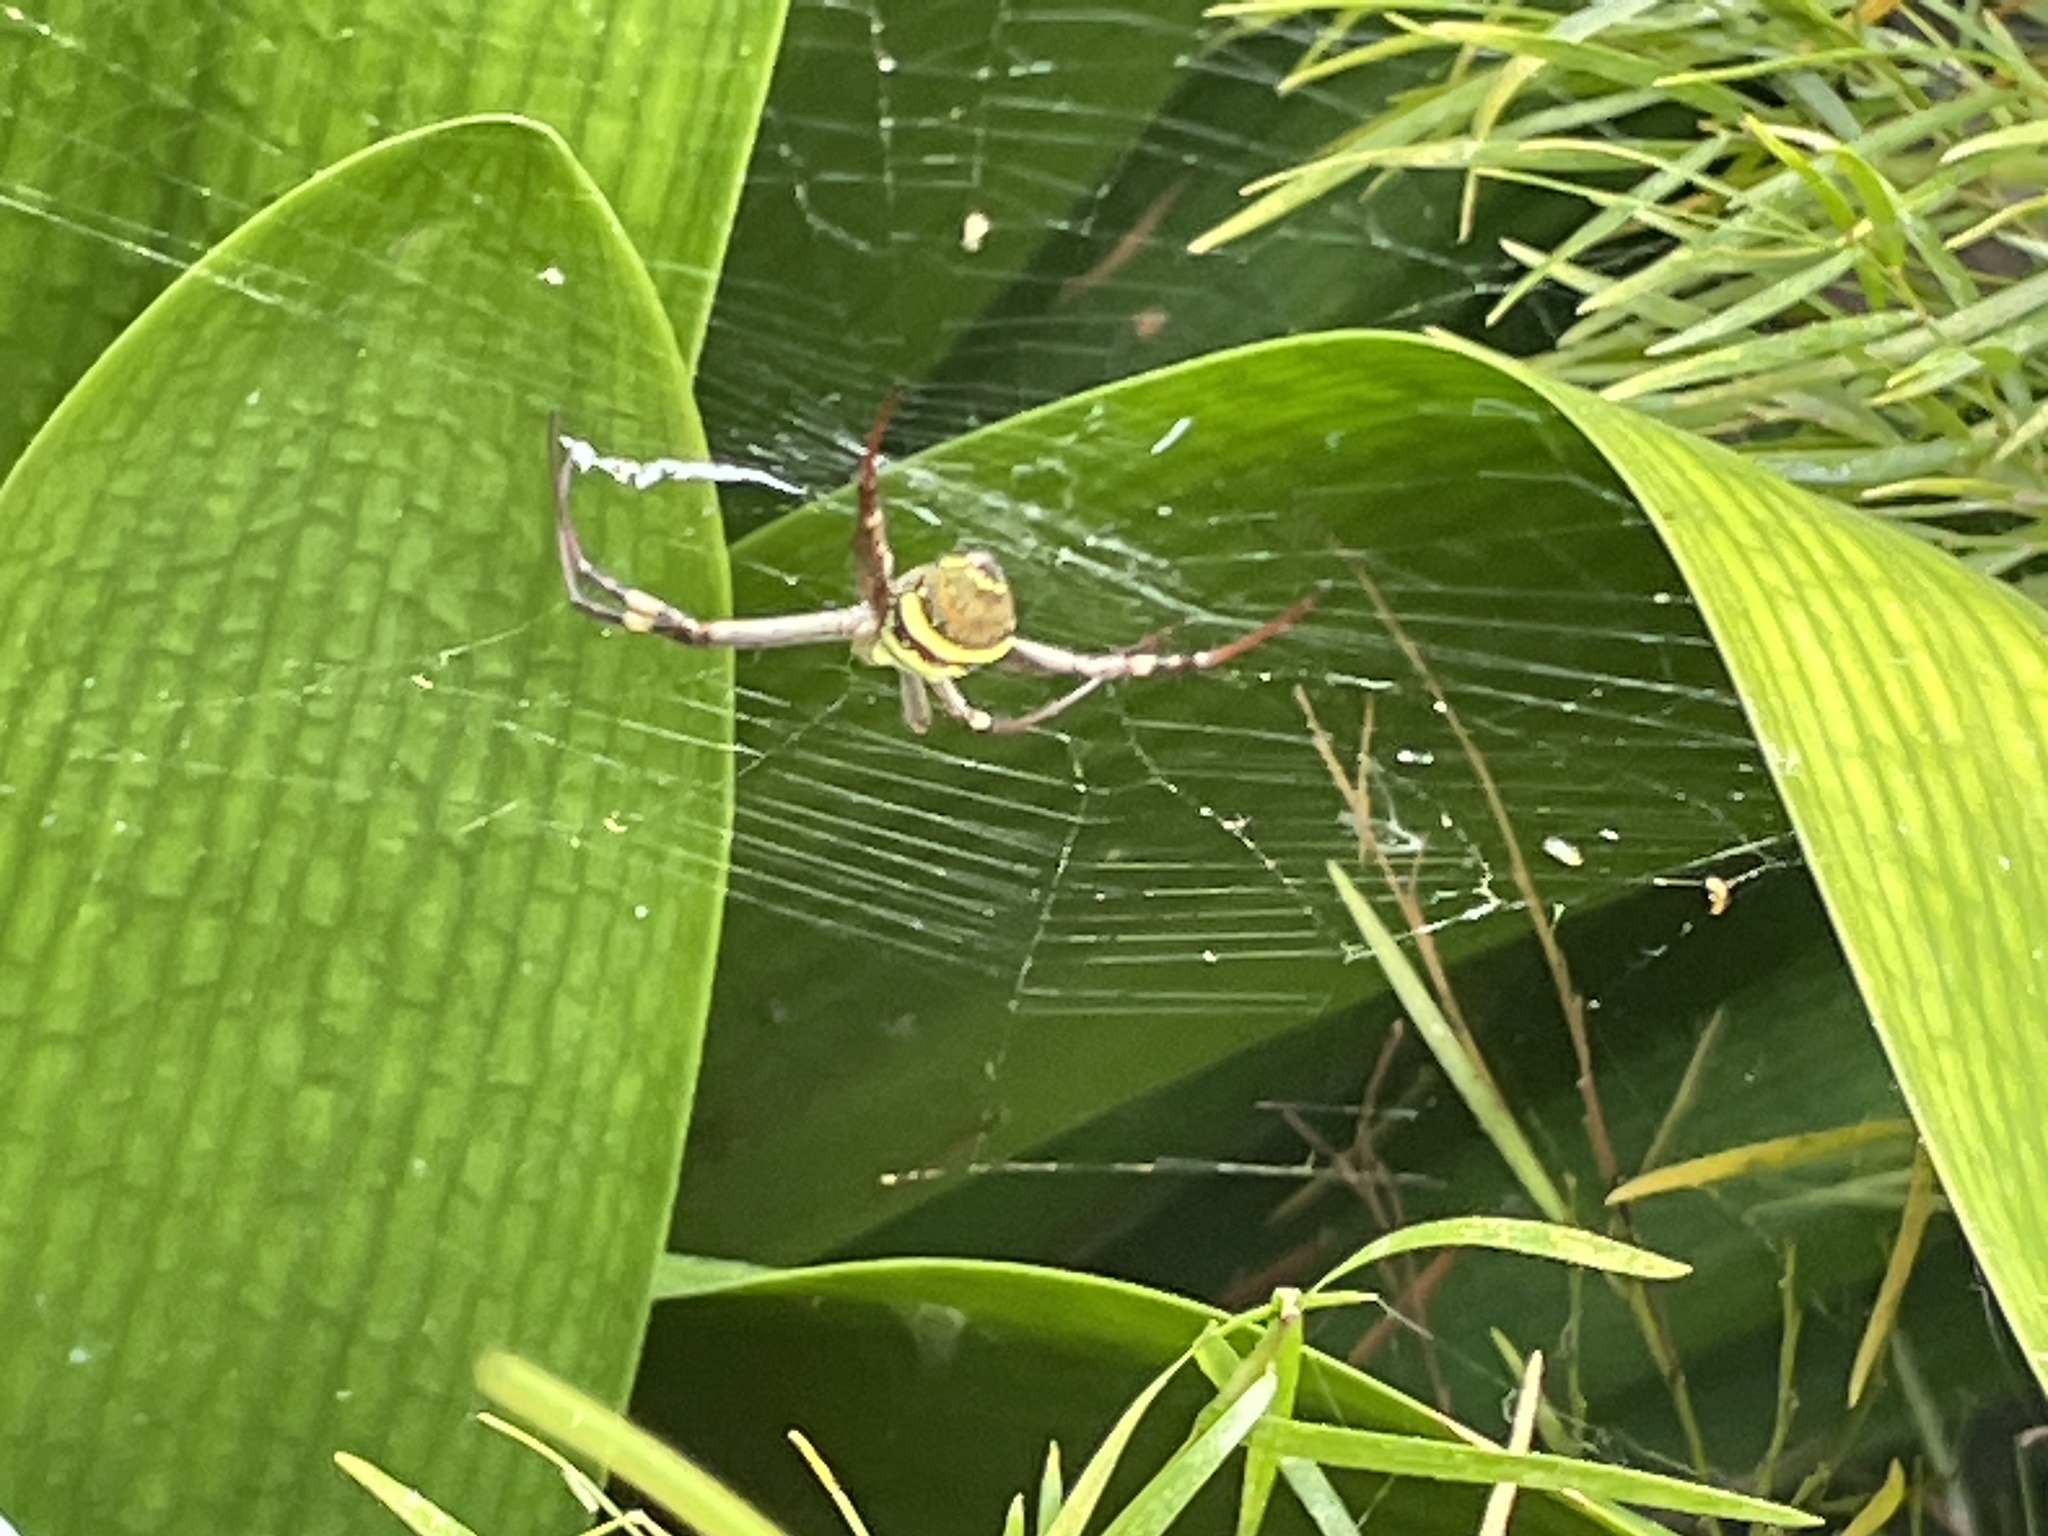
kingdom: Animalia
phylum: Arthropoda
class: Arachnida
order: Araneae
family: Araneidae
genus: Argiope
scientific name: Argiope keyserlingi
